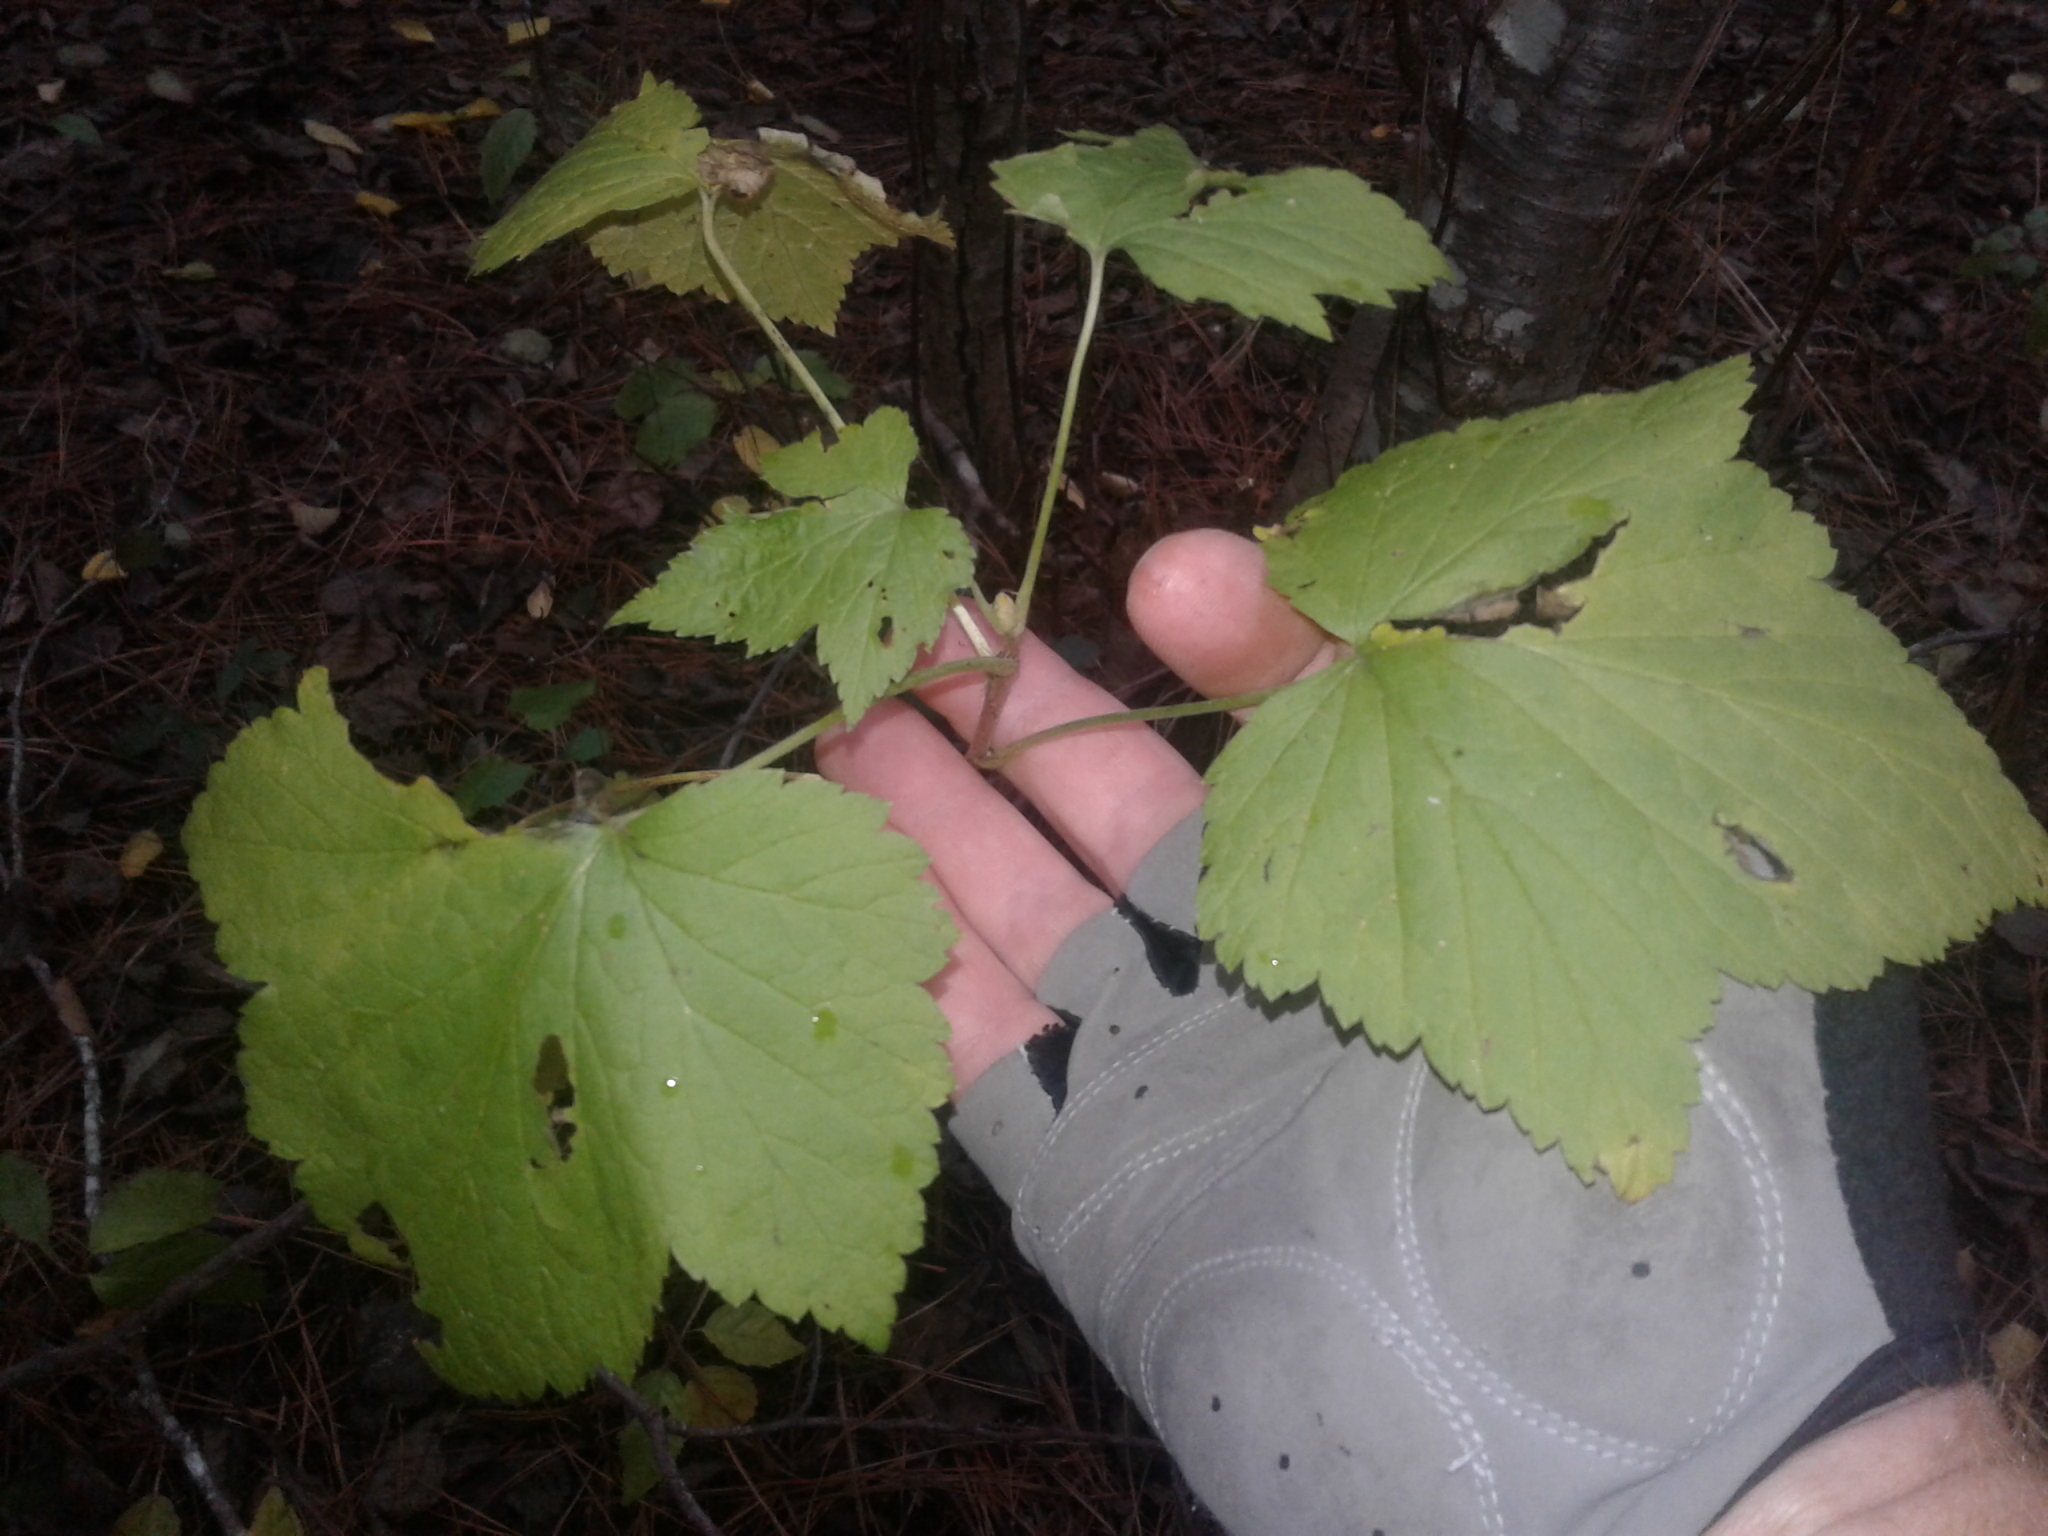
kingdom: Plantae
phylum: Tracheophyta
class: Magnoliopsida
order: Saxifragales
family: Grossulariaceae
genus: Ribes
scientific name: Ribes sanguineum
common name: Flowering currant
